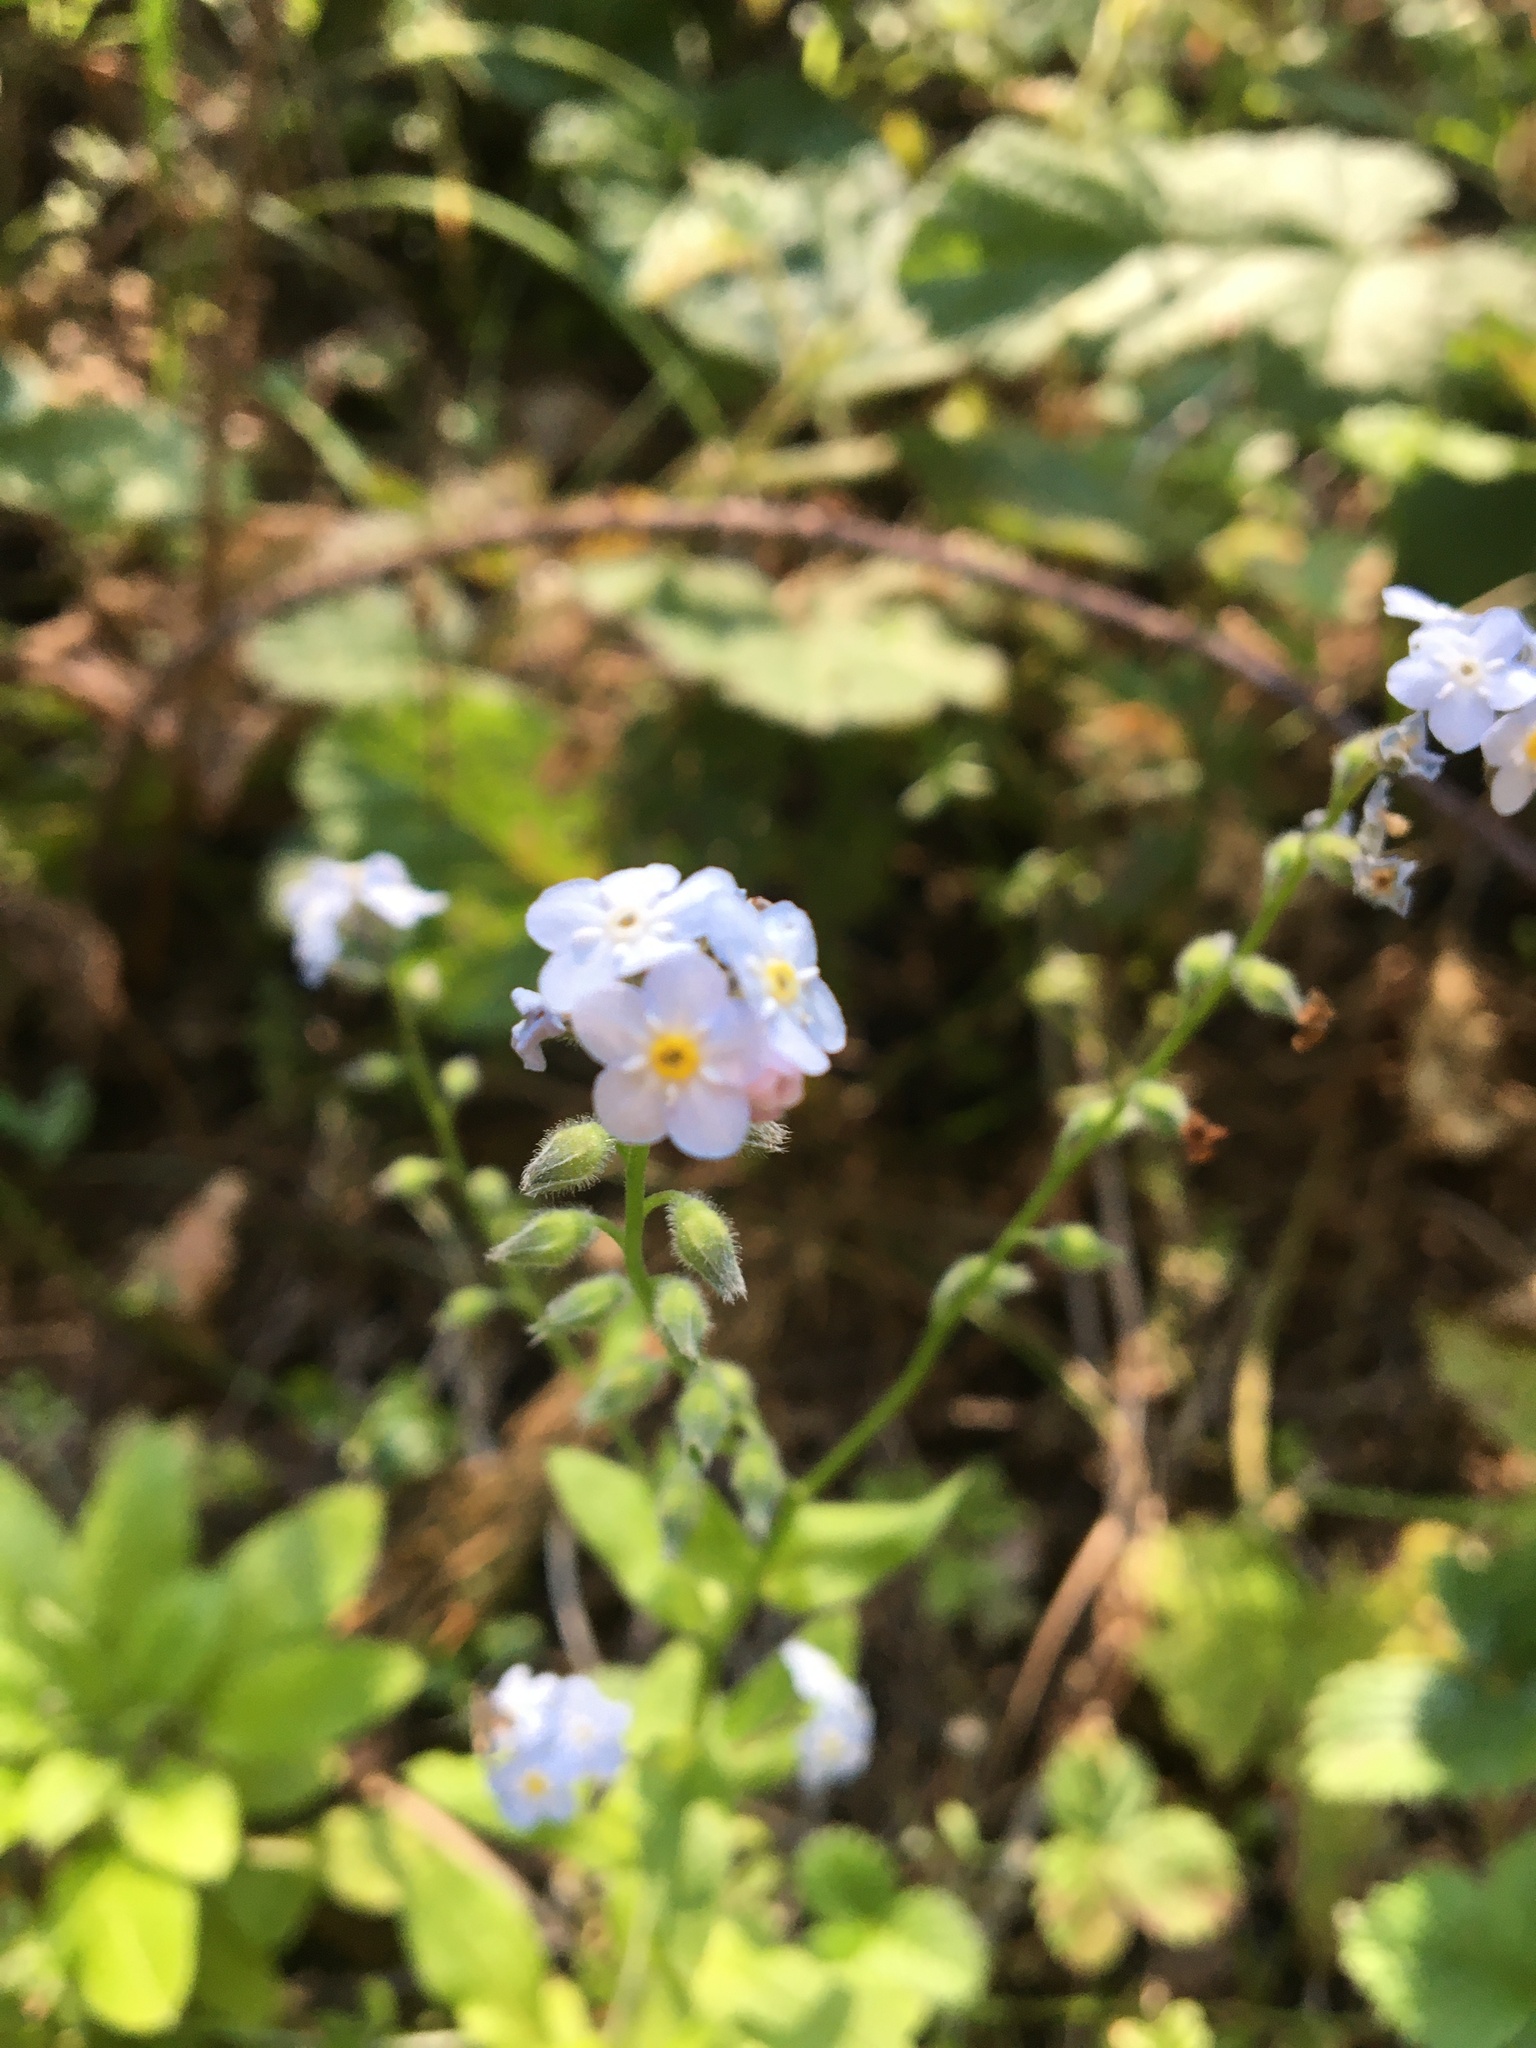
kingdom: Plantae
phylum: Tracheophyta
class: Magnoliopsida
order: Boraginales
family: Boraginaceae
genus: Myosotis
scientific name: Myosotis latifolia
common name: Broadleaf forget-me-not
